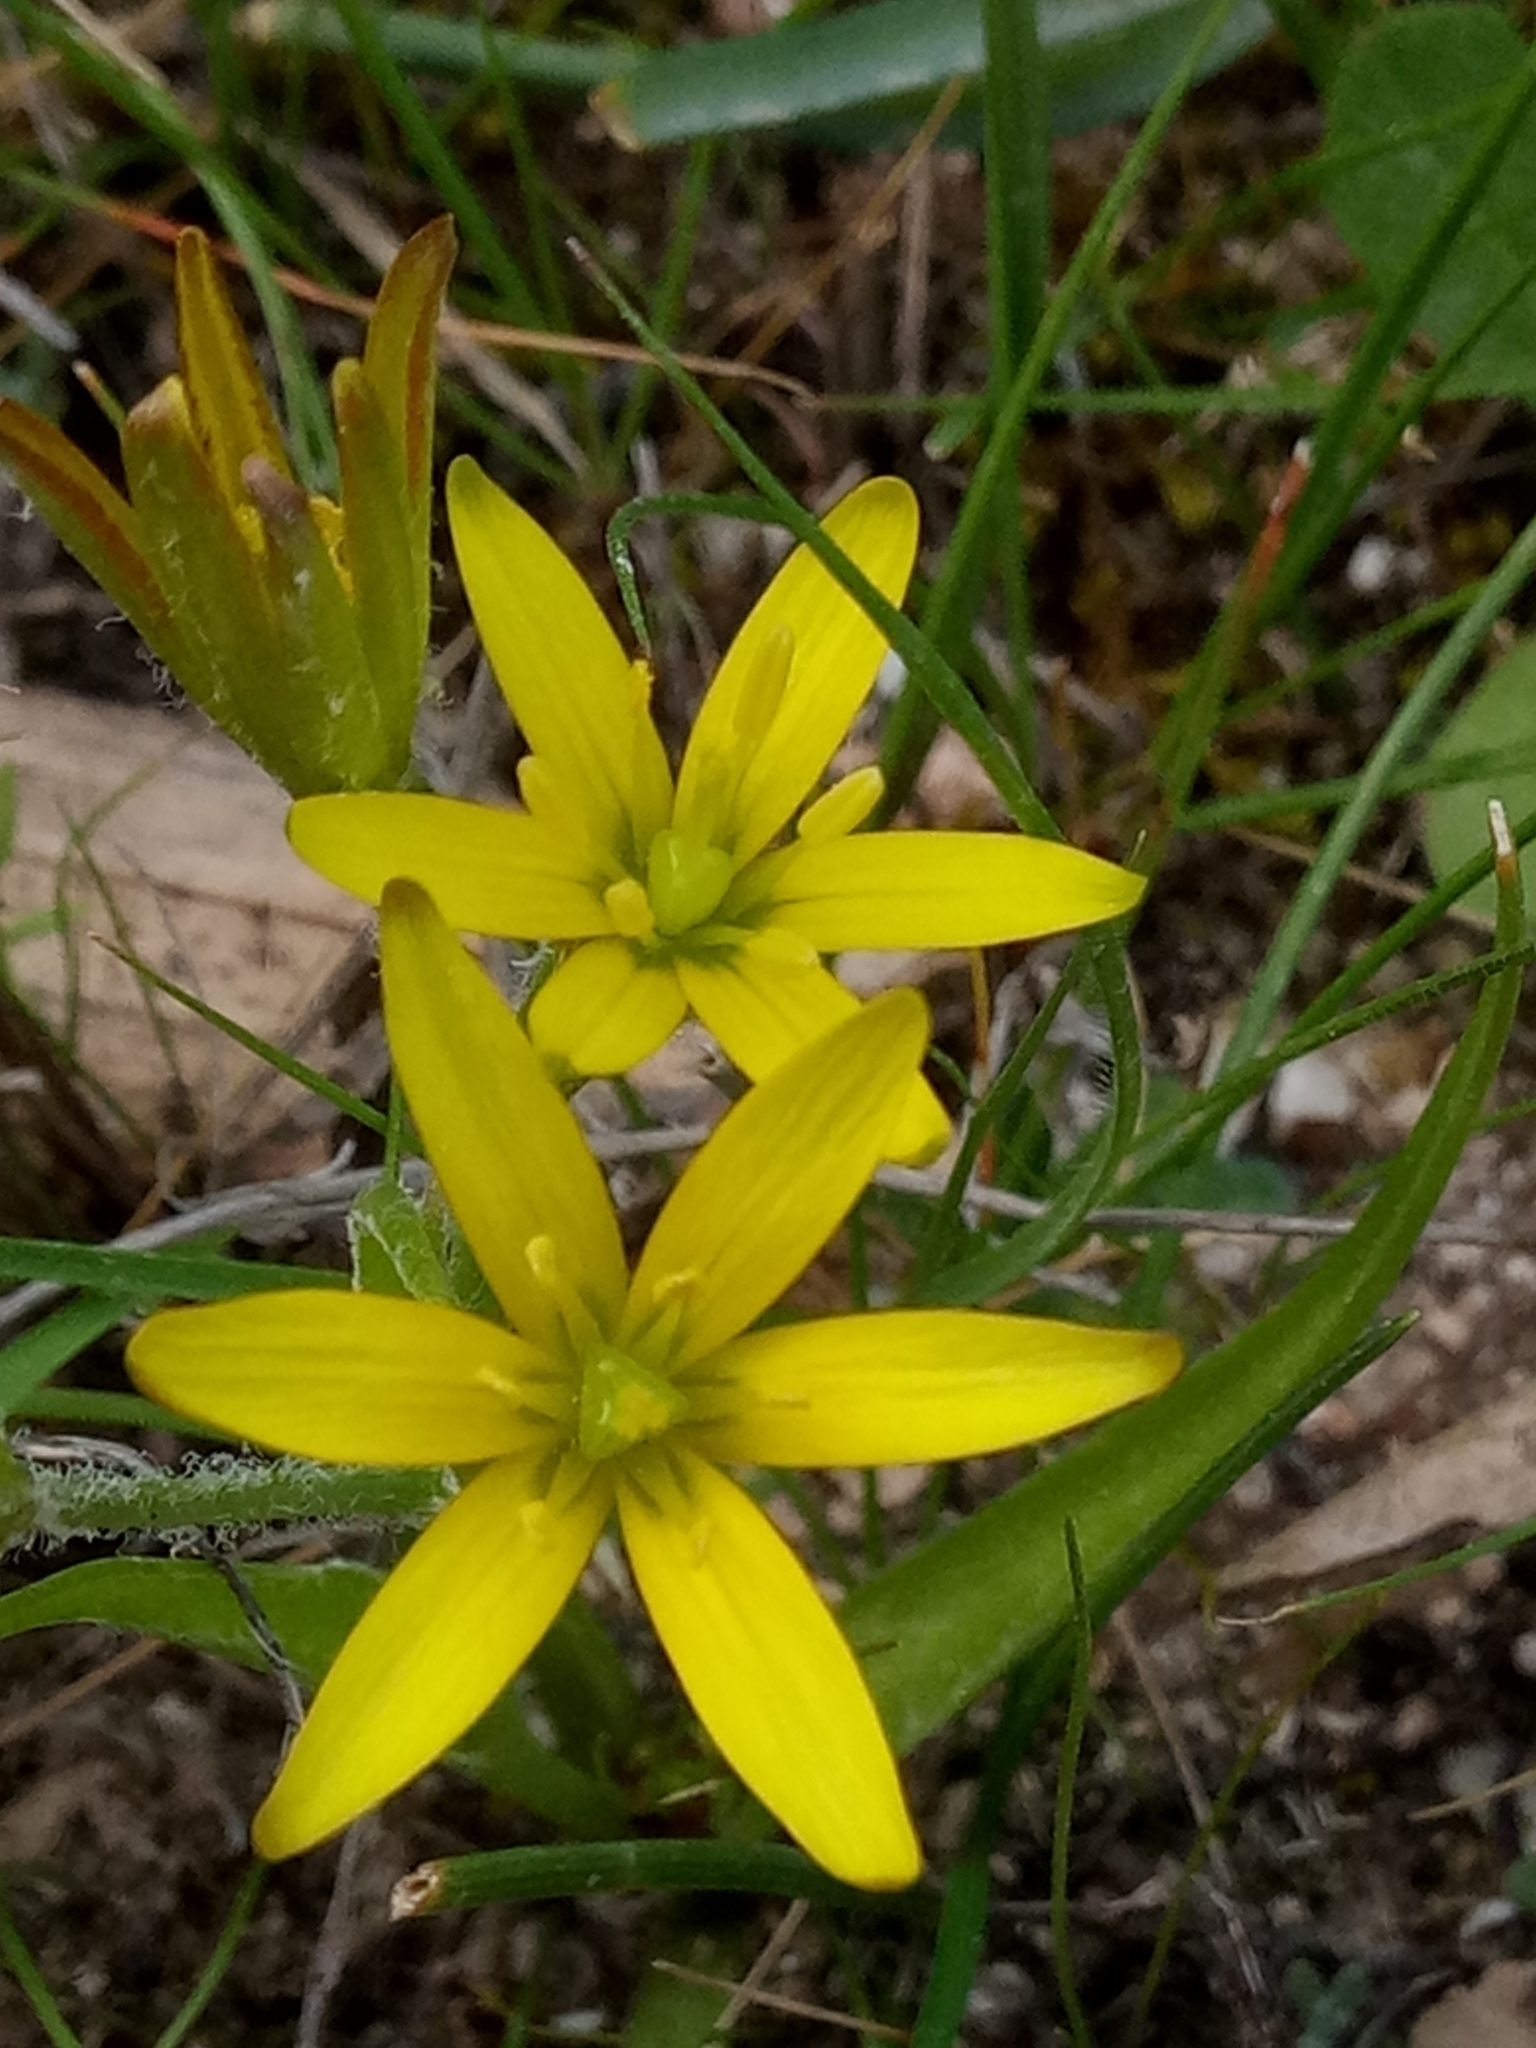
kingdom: Plantae
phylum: Tracheophyta
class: Liliopsida
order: Liliales
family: Liliaceae
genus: Gagea
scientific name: Gagea lacaitae
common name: Gagée de lacaita
